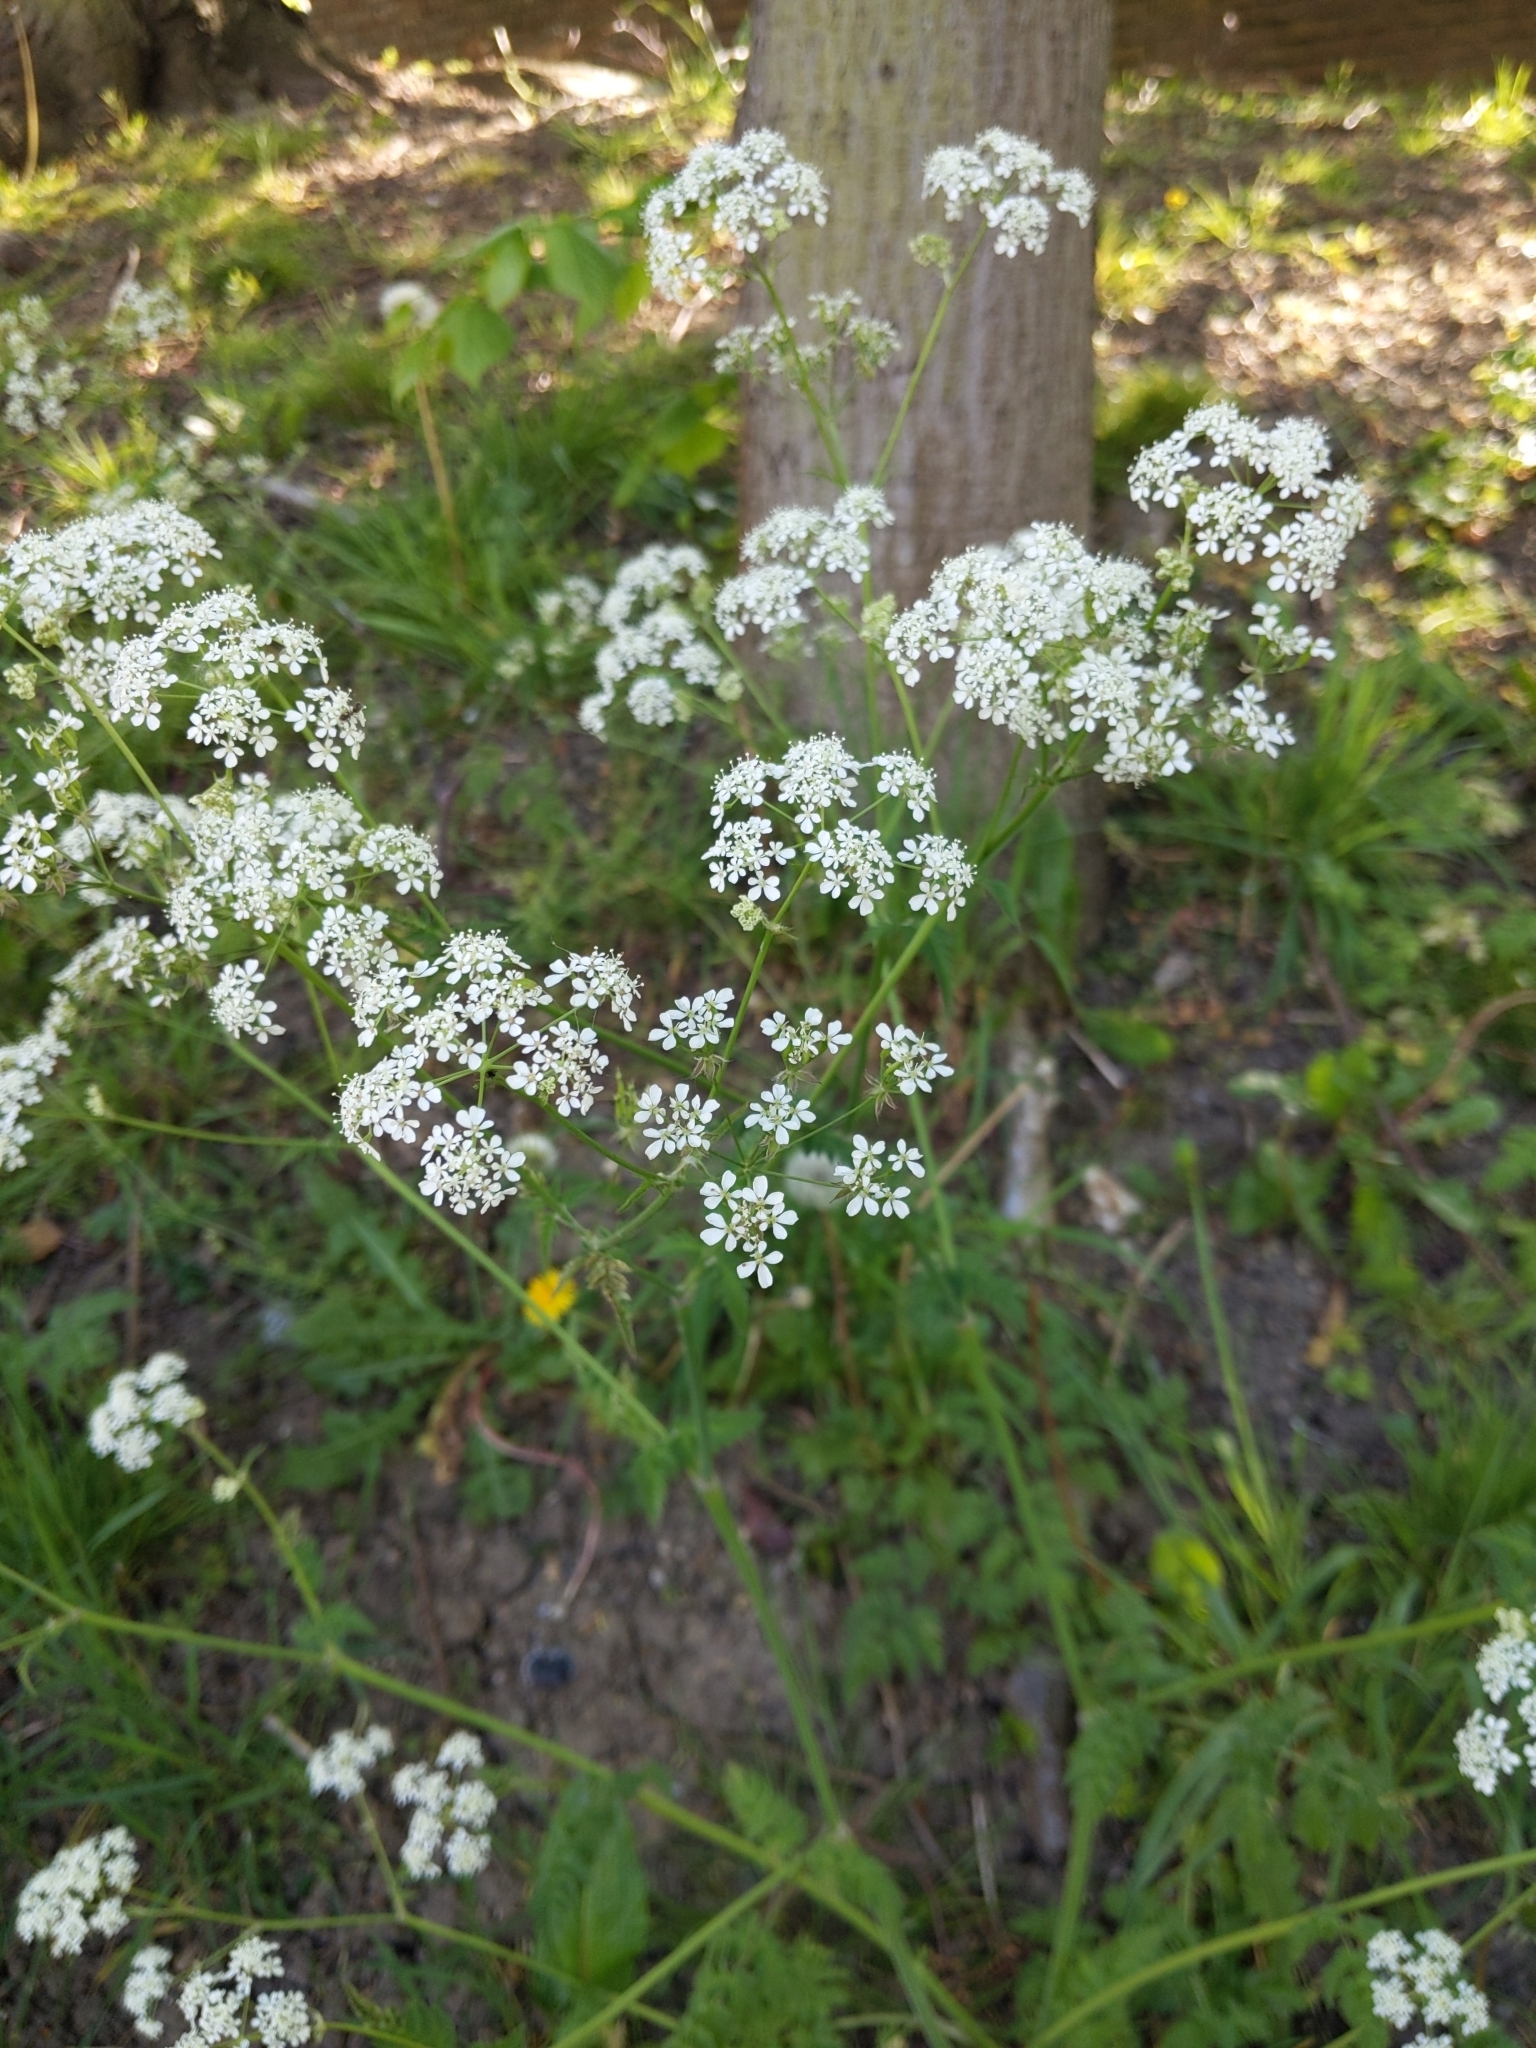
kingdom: Plantae
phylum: Tracheophyta
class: Magnoliopsida
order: Apiales
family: Apiaceae
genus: Anthriscus
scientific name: Anthriscus sylvestris
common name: Cow parsley
